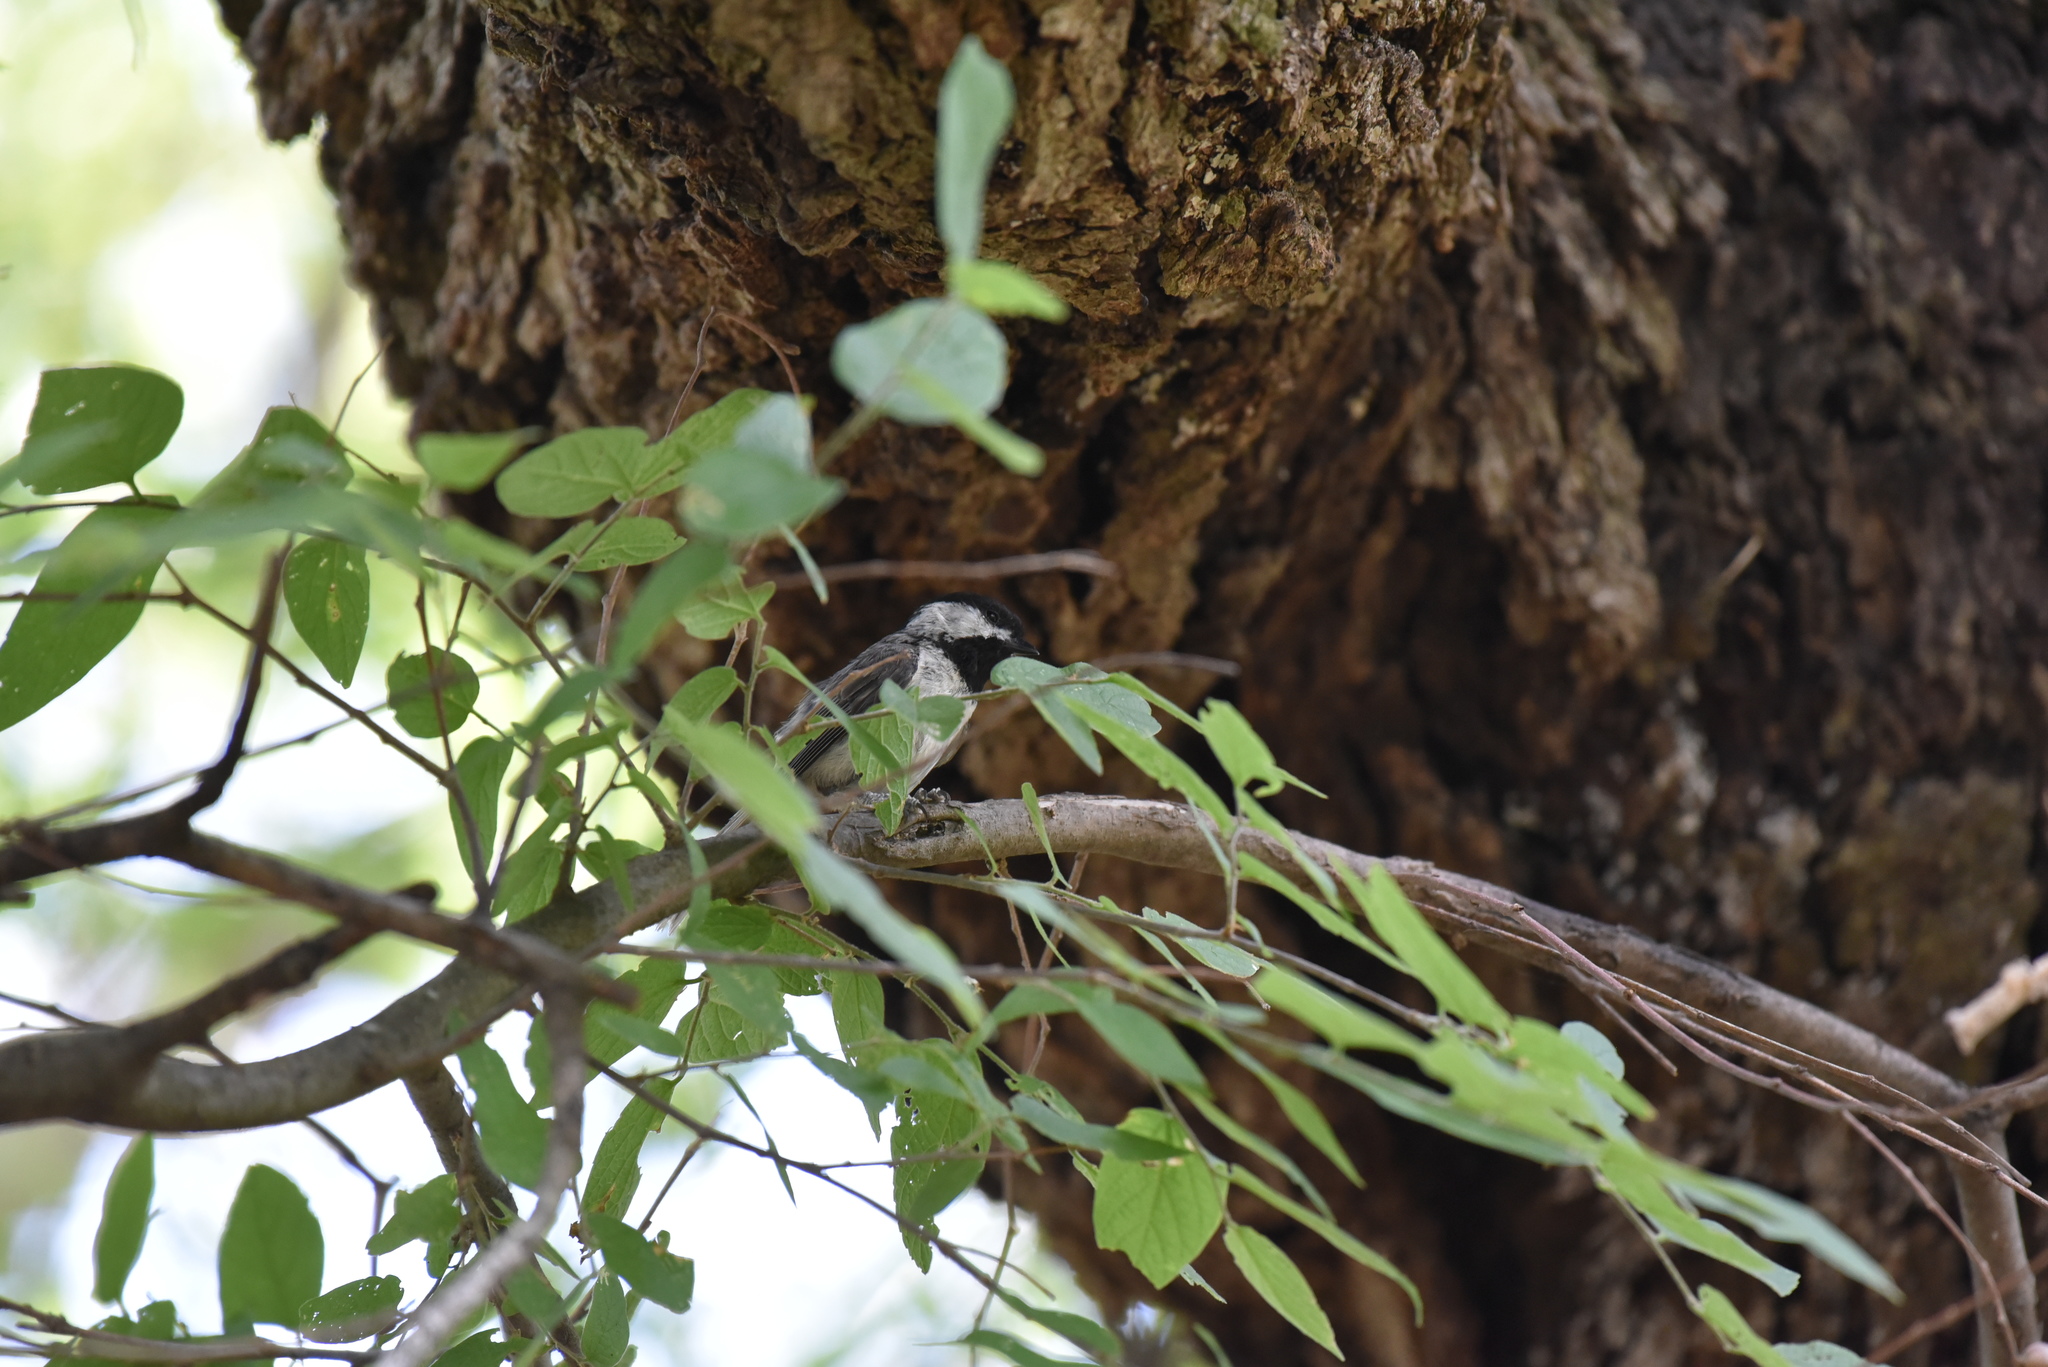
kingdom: Animalia
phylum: Chordata
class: Aves
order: Passeriformes
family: Paridae
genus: Poecile
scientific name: Poecile carolinensis
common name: Carolina chickadee
